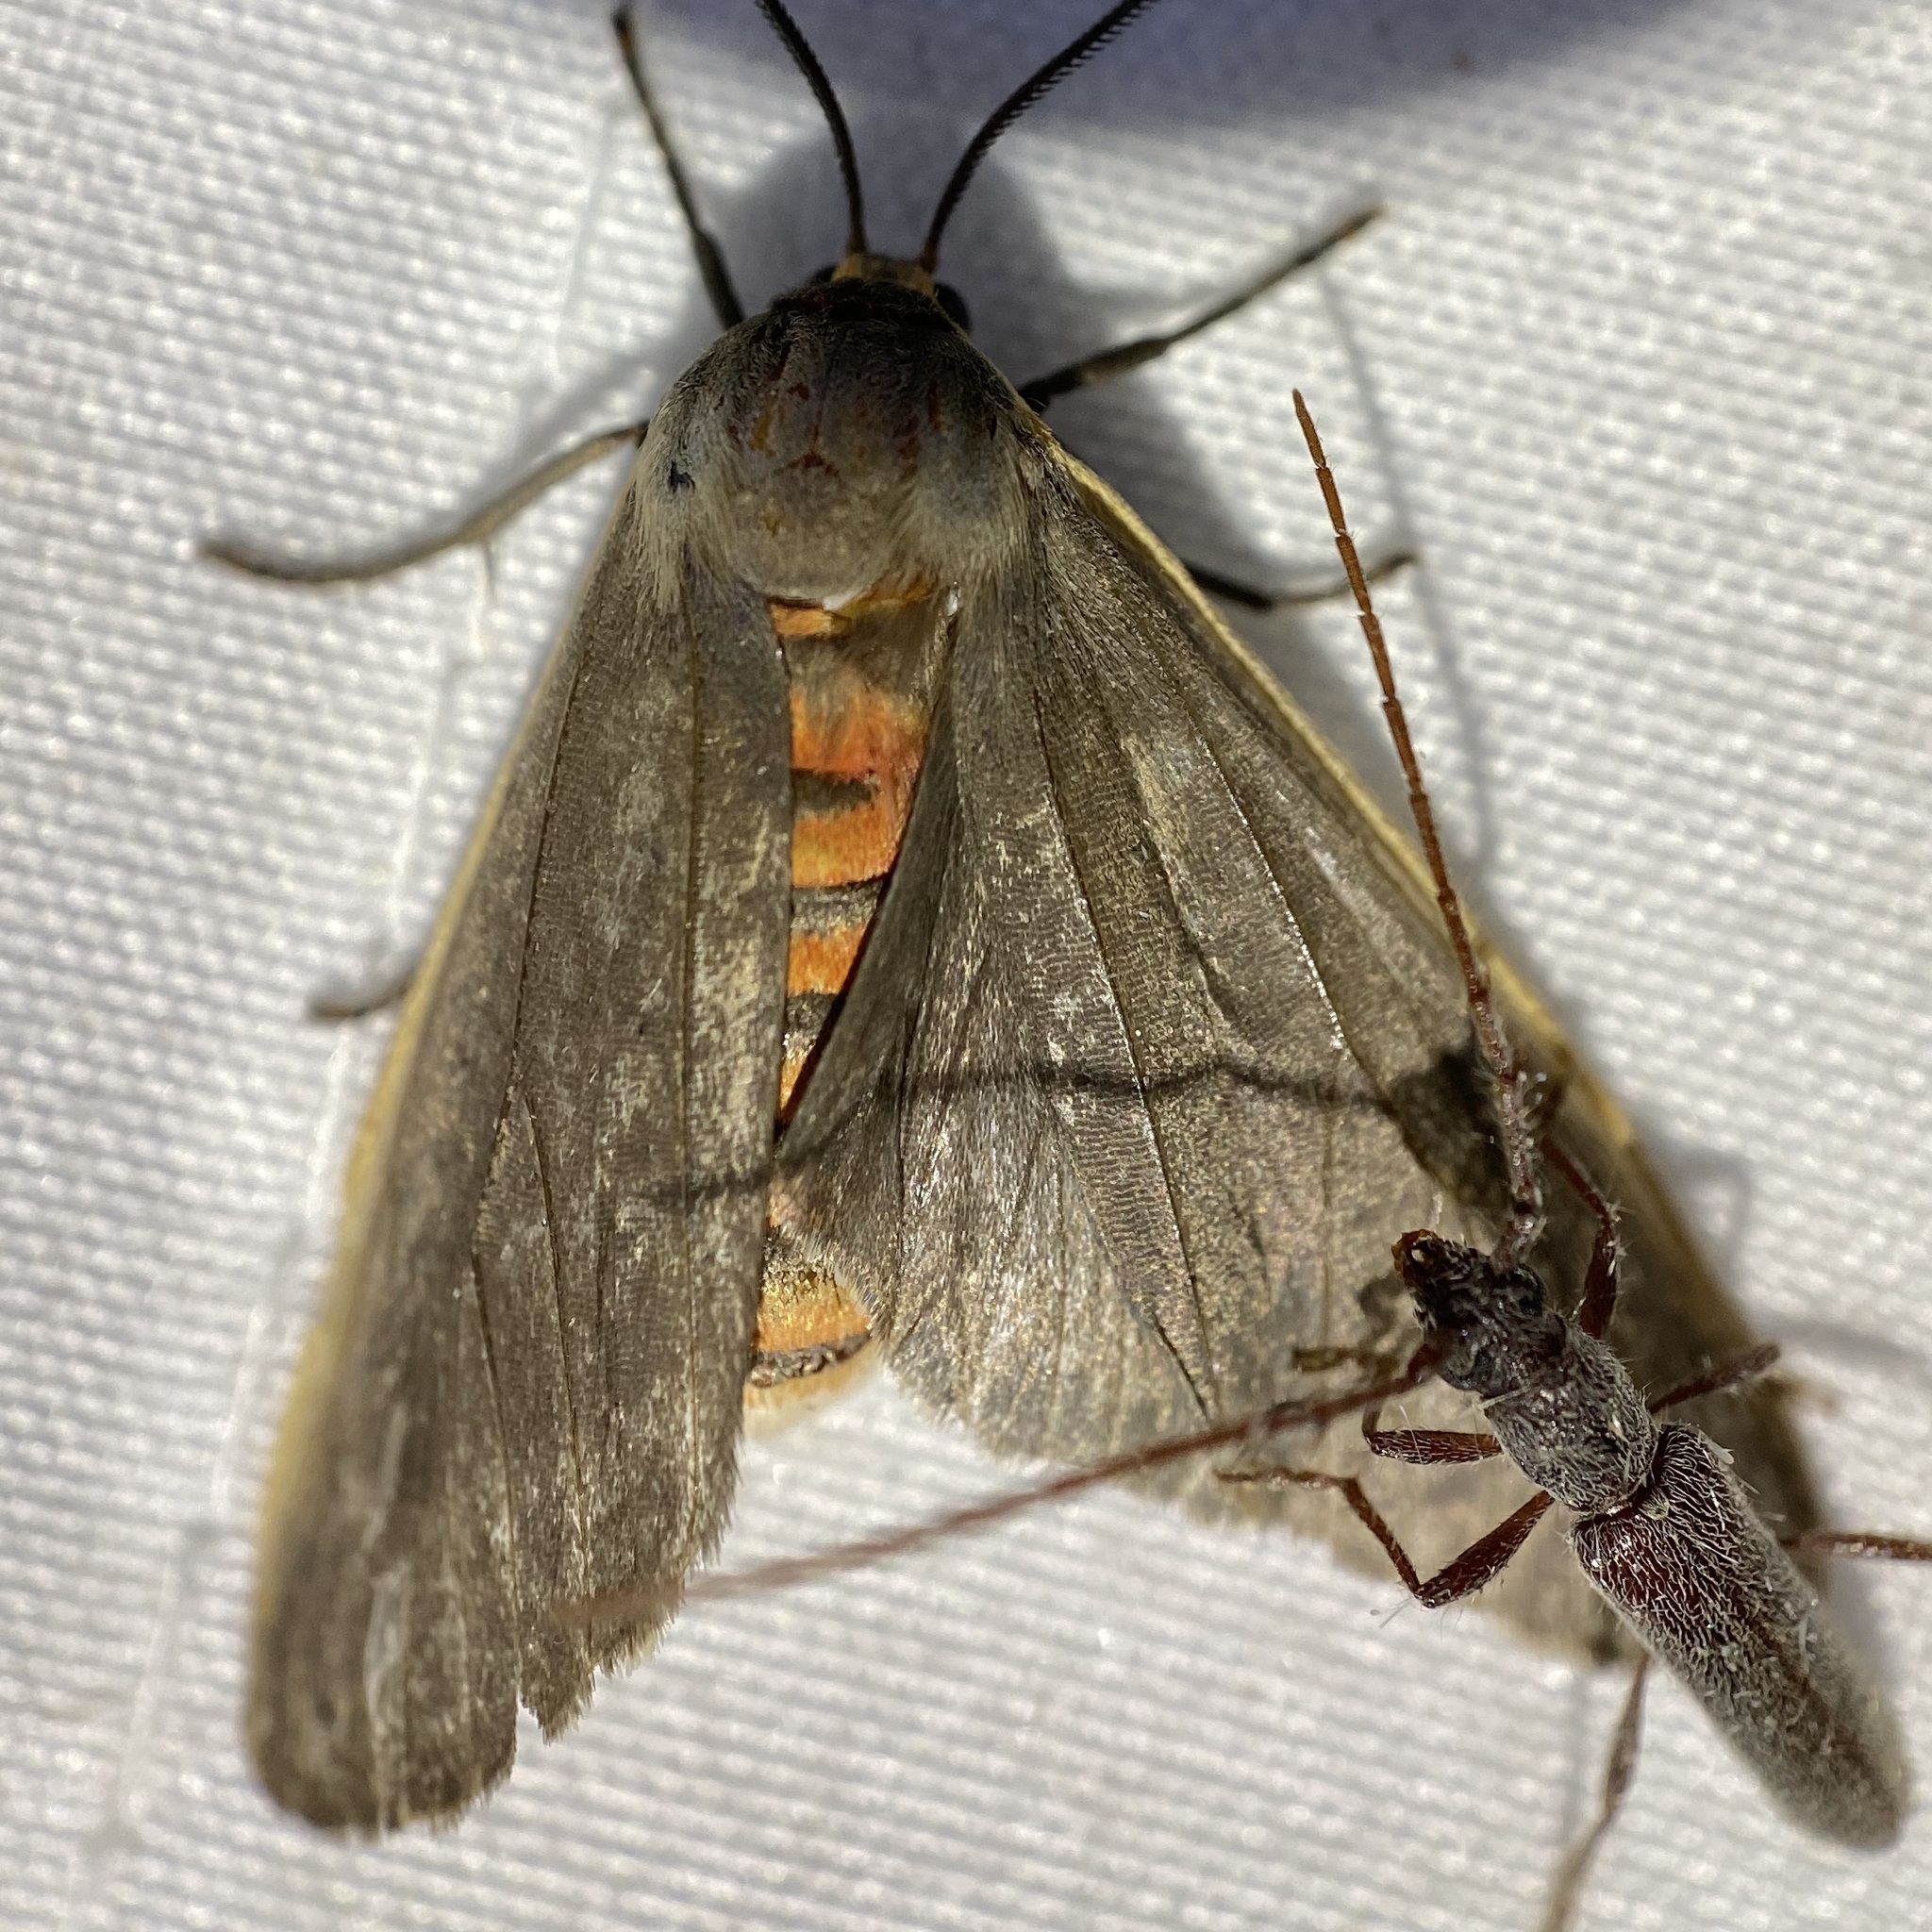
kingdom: Animalia
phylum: Arthropoda
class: Insecta
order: Lepidoptera
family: Erebidae
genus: Euchaetes
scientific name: Euchaetes antica
